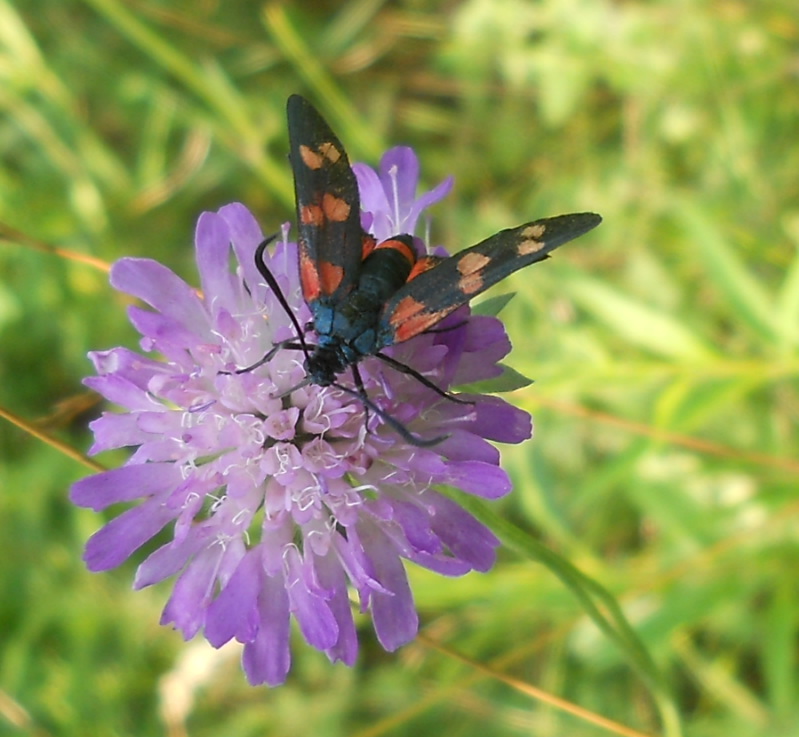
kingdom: Animalia
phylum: Arthropoda
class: Insecta
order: Lepidoptera
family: Zygaenidae
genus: Zygaena
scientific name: Zygaena filipendulae
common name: Six-spot burnet
